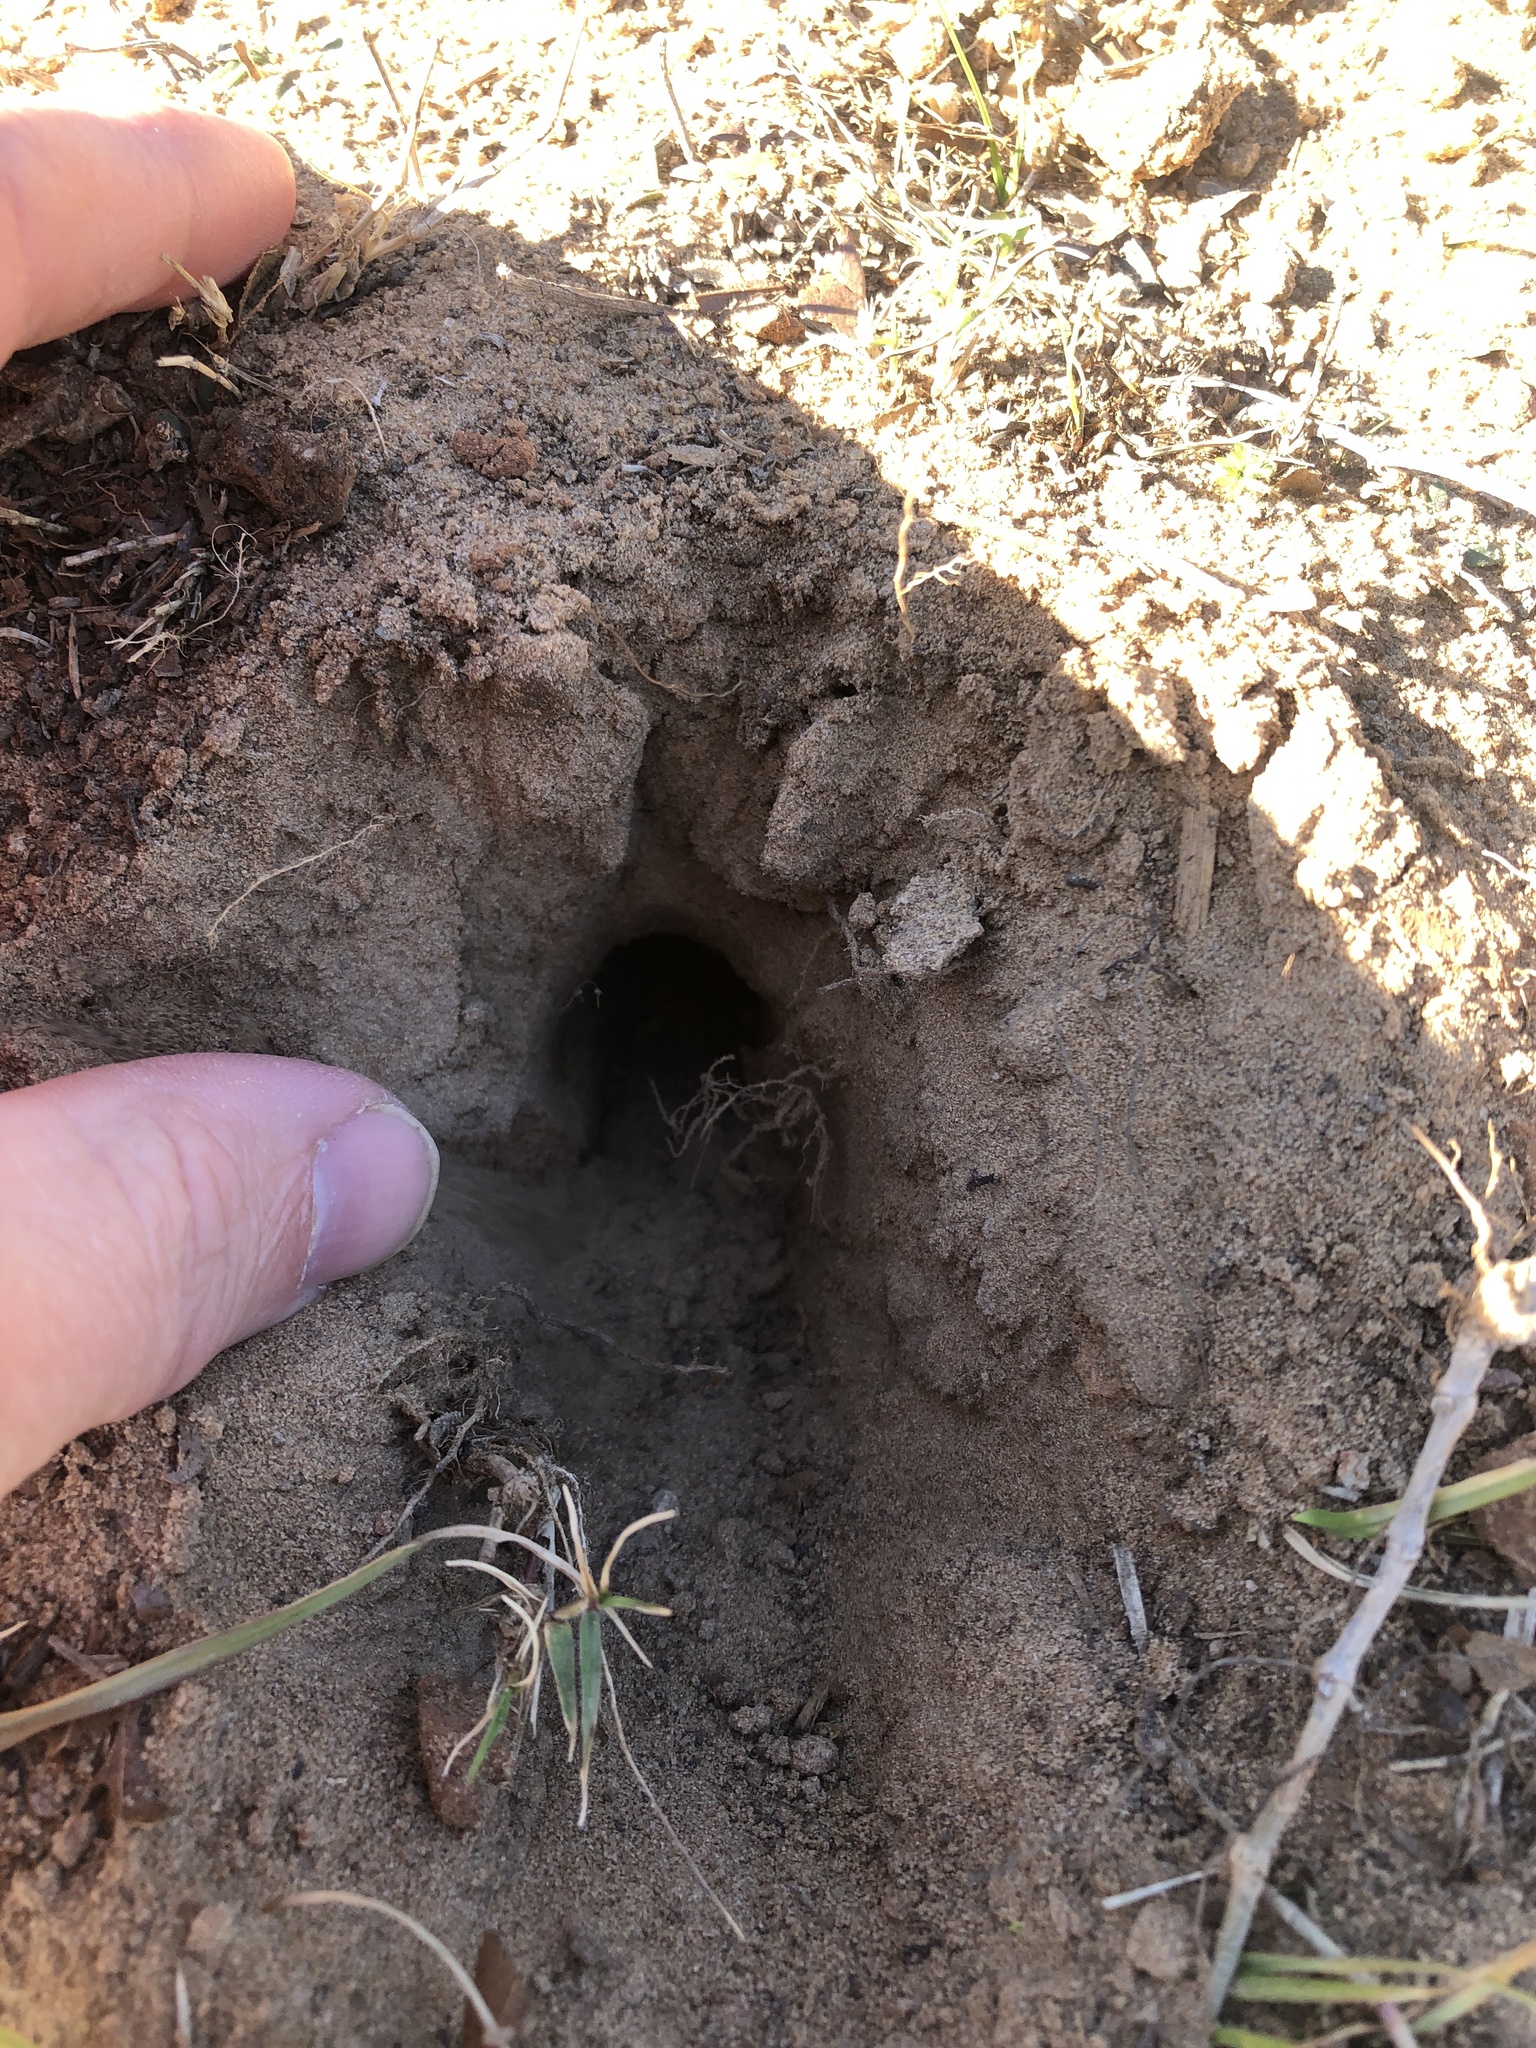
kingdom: Animalia
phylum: Chordata
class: Mammalia
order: Soricomorpha
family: Talpidae
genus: Scalopus
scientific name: Scalopus aquaticus
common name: Eastern mole
